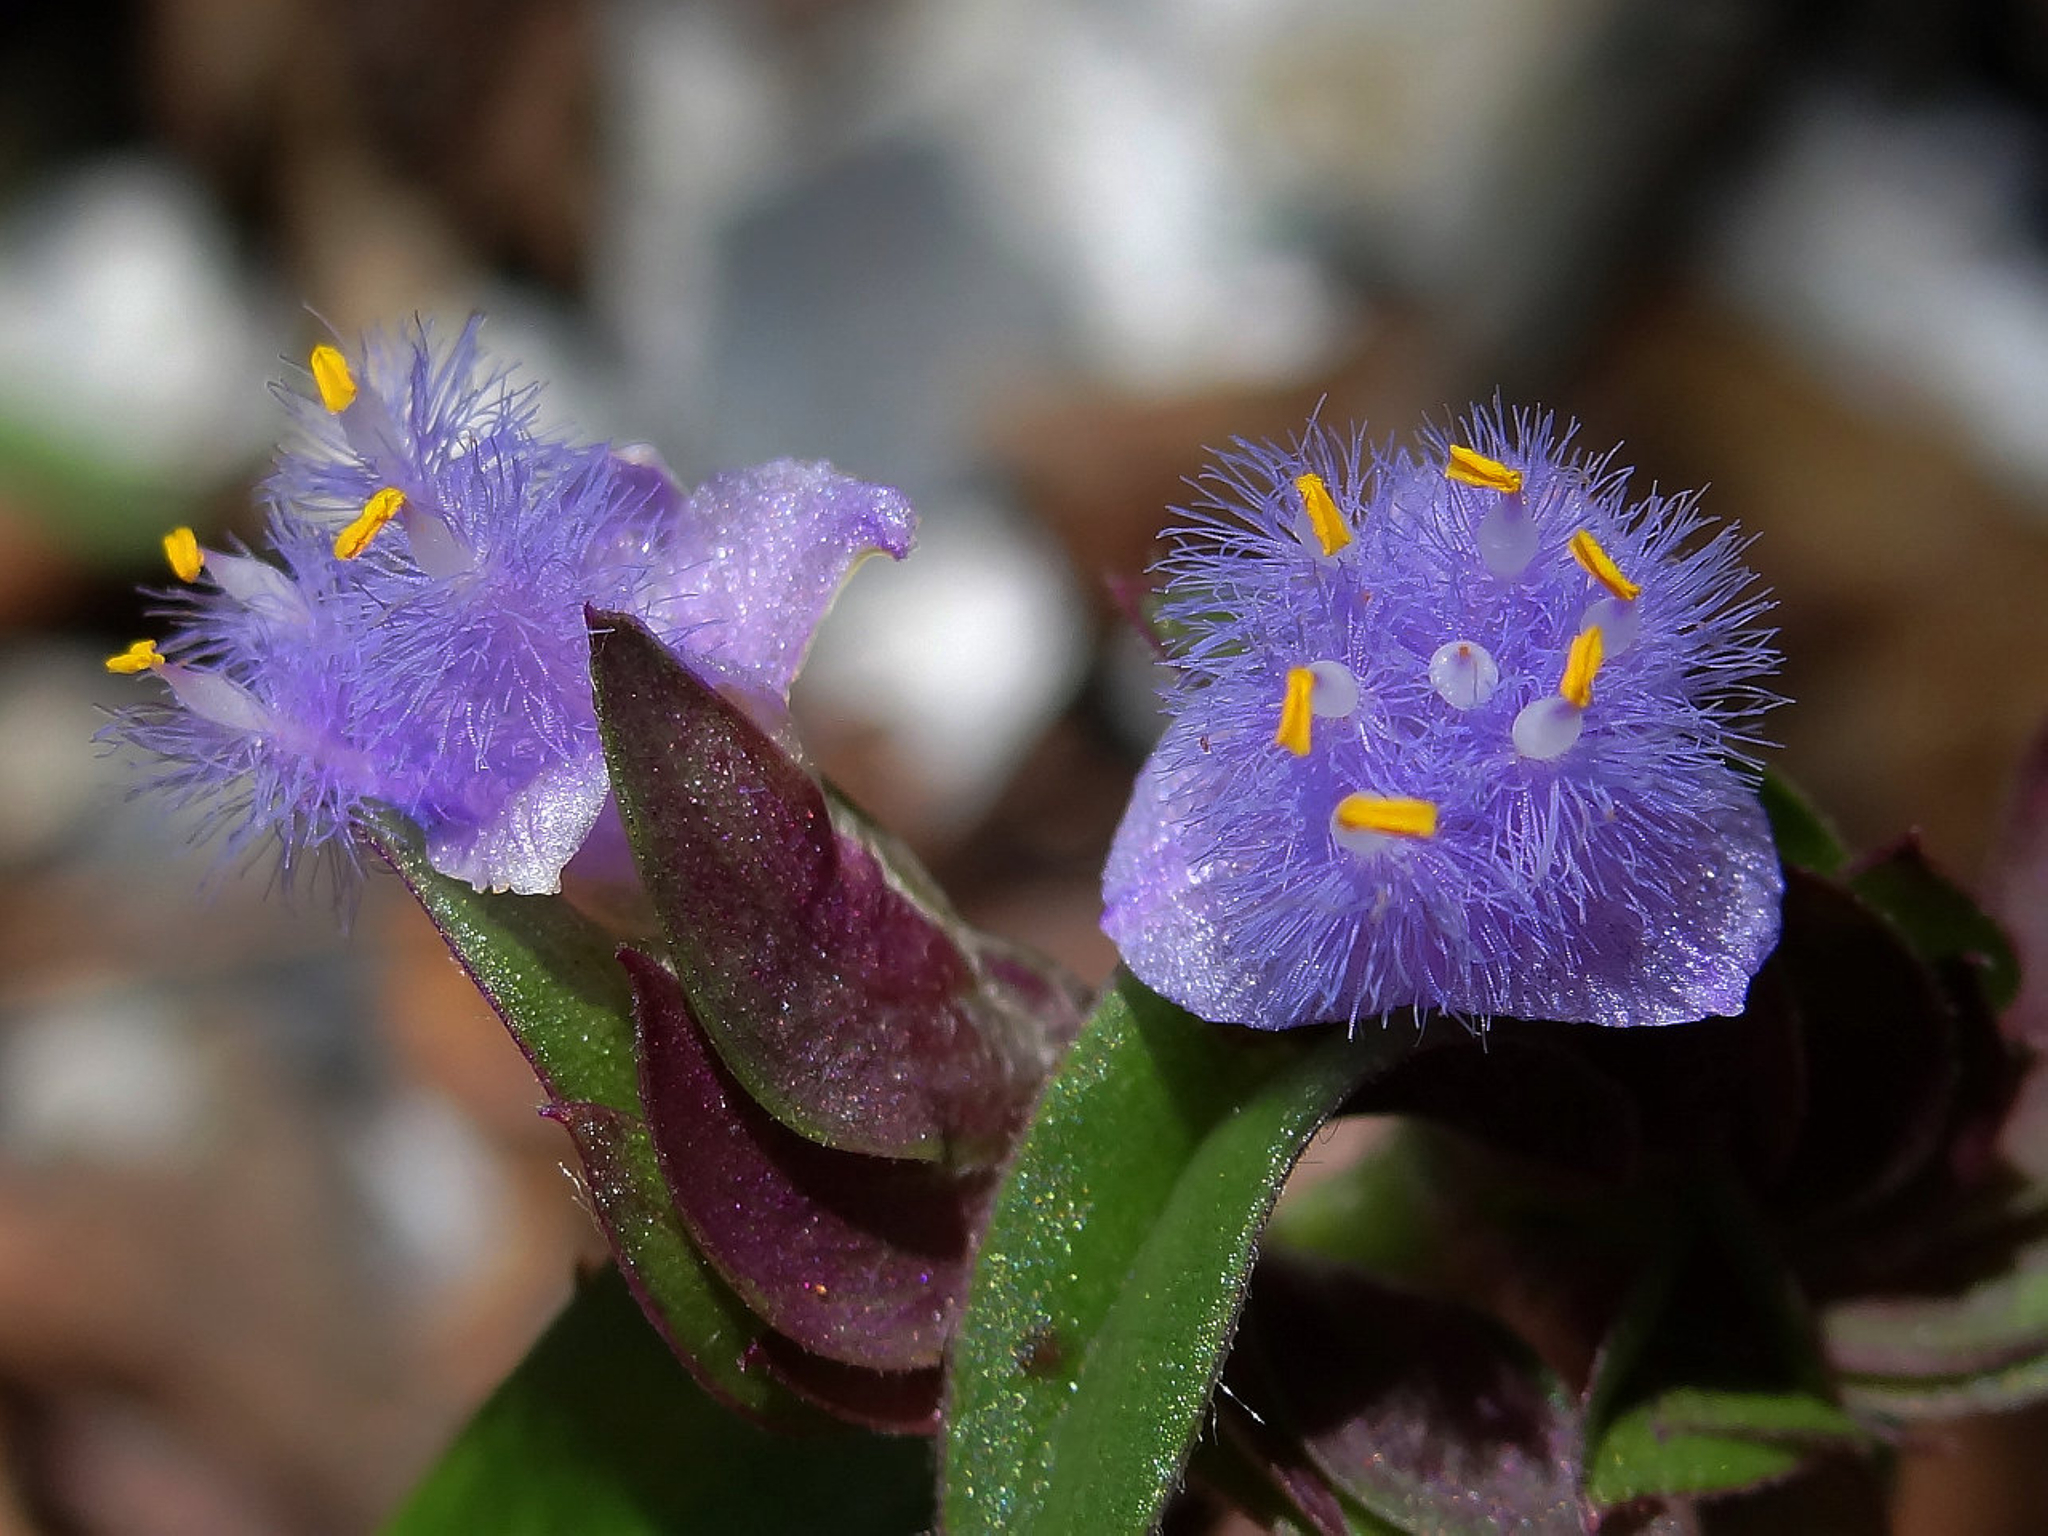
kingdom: Plantae
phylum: Tracheophyta
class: Liliopsida
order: Commelinales
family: Commelinaceae
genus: Cyanotis
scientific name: Cyanotis arachnoidea
